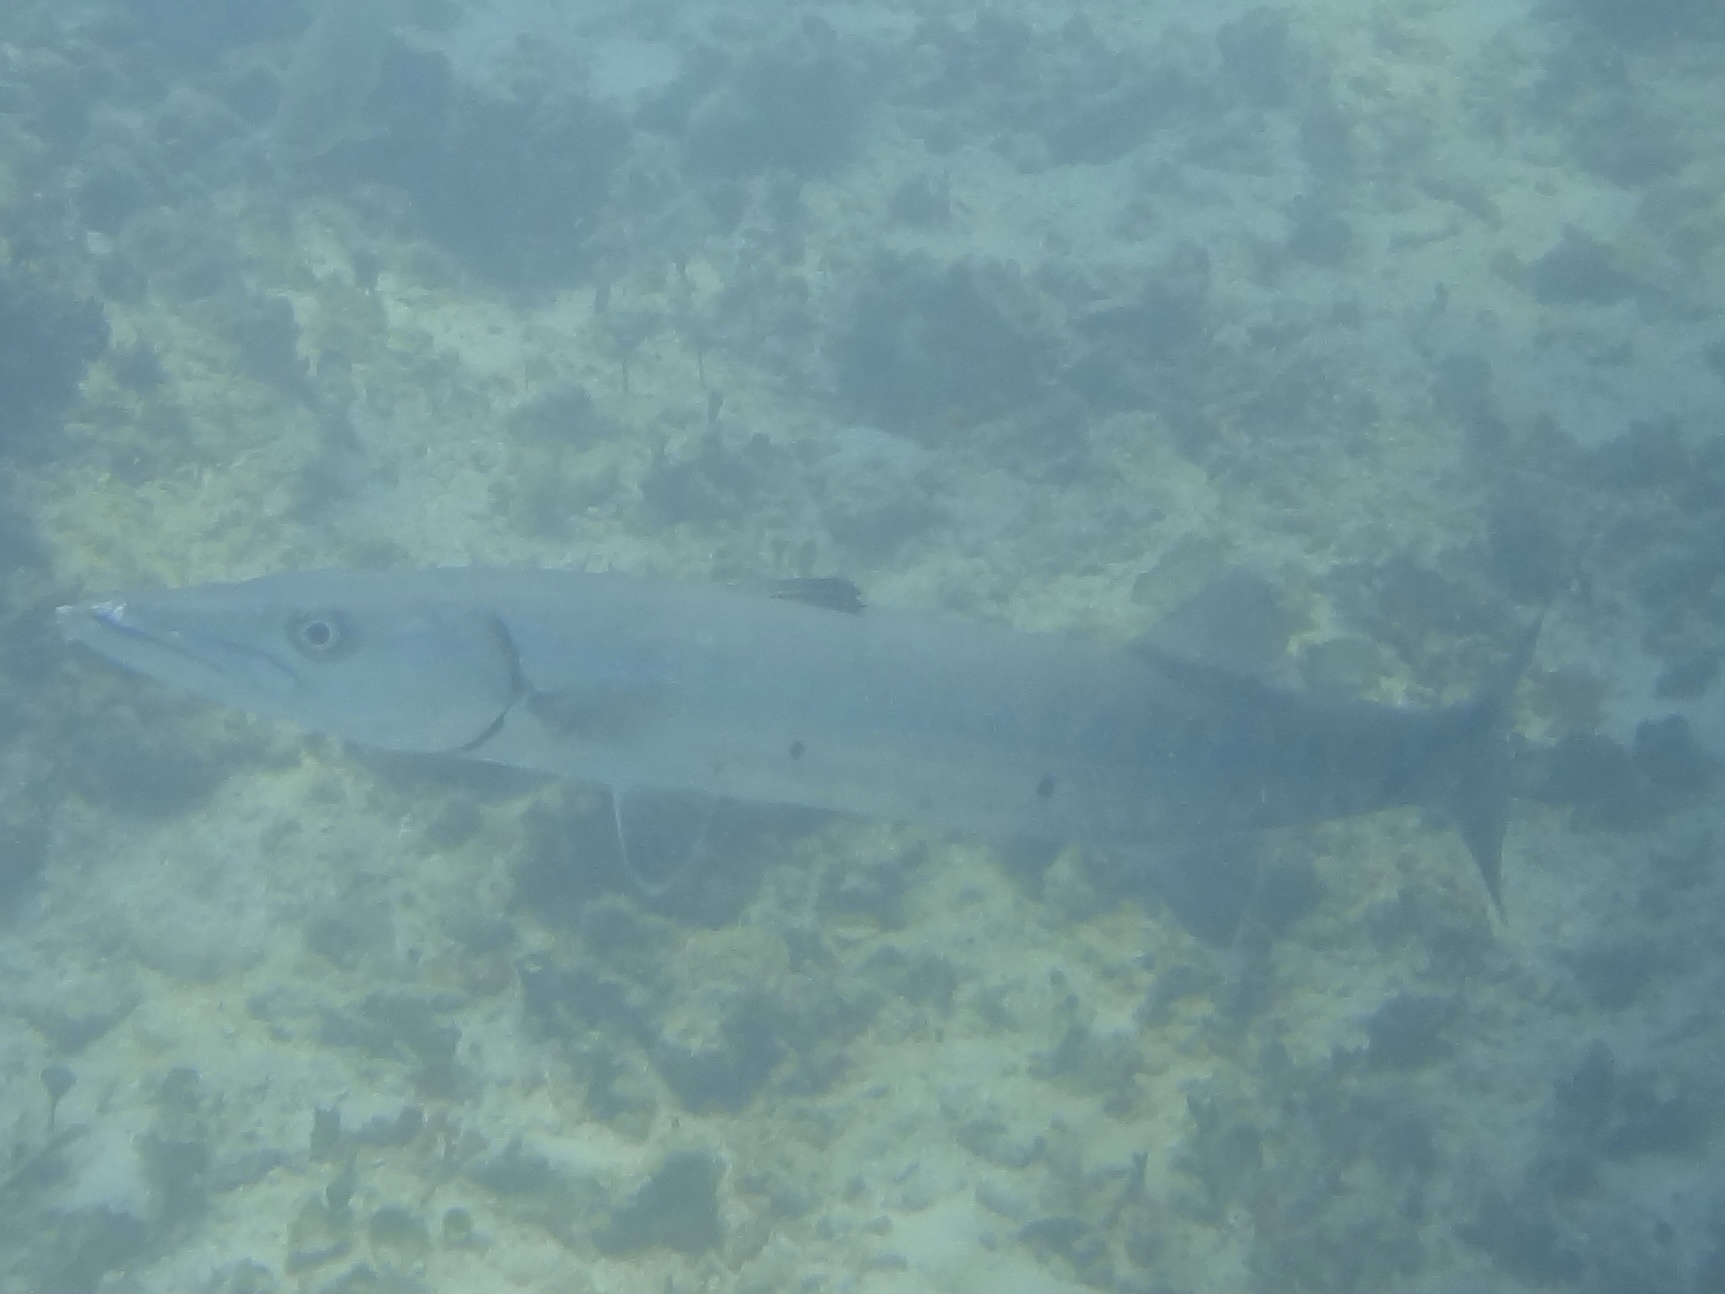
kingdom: Animalia
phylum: Chordata
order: Perciformes
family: Sphyraenidae
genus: Sphyraena
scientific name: Sphyraena barracuda
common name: Great barracuda
